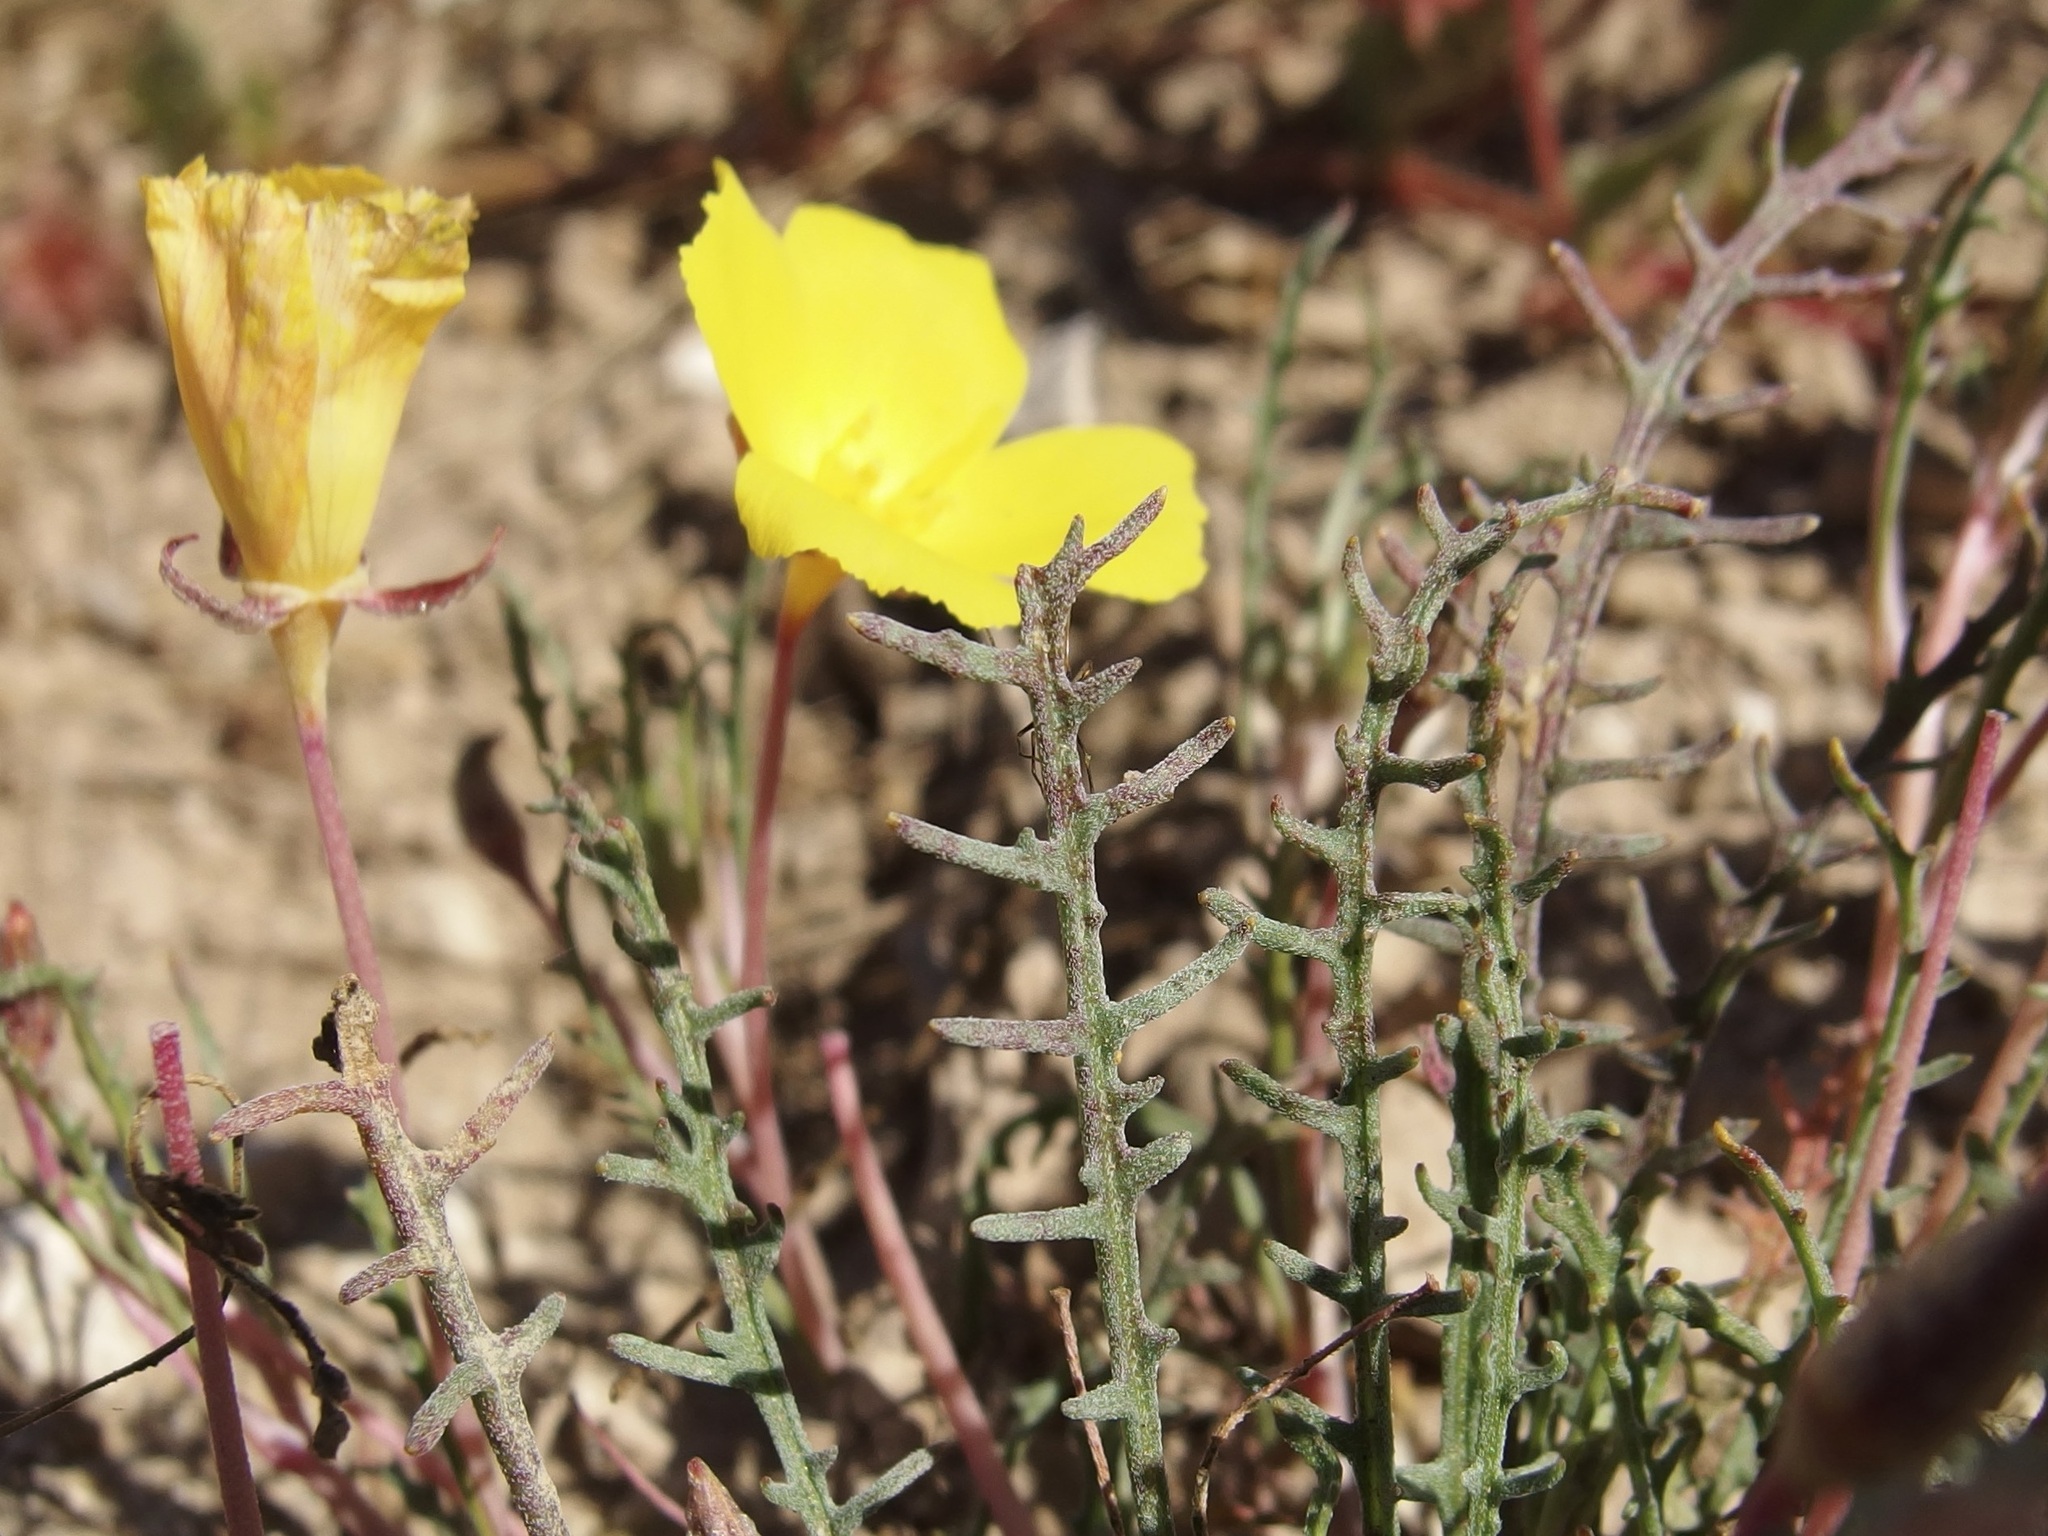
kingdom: Plantae
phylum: Tracheophyta
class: Magnoliopsida
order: Myrtales
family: Onagraceae
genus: Eulobus
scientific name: Eulobus sceptrostigma
